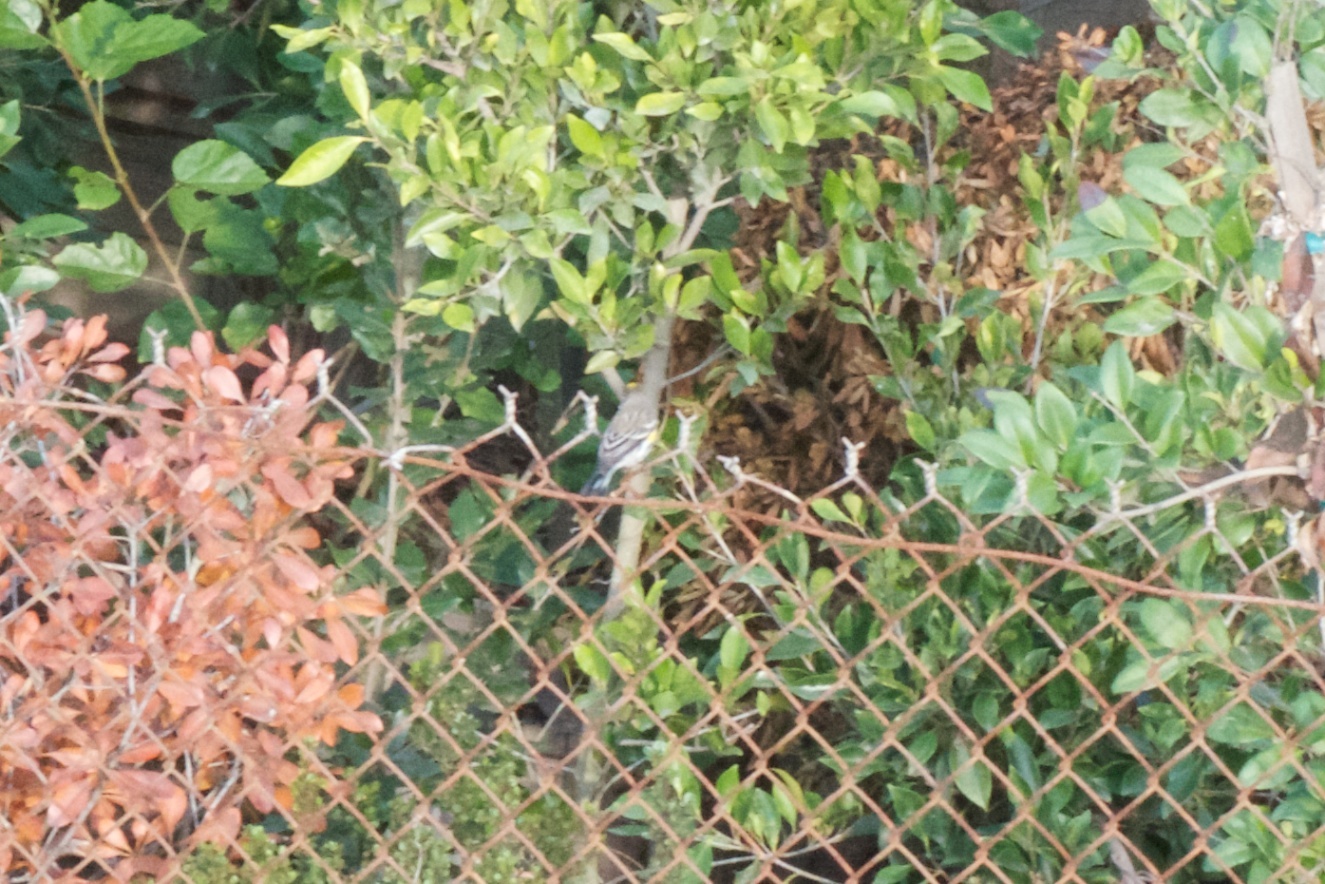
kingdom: Animalia
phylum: Chordata
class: Aves
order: Passeriformes
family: Parulidae
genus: Setophaga
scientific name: Setophaga coronata
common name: Myrtle warbler
